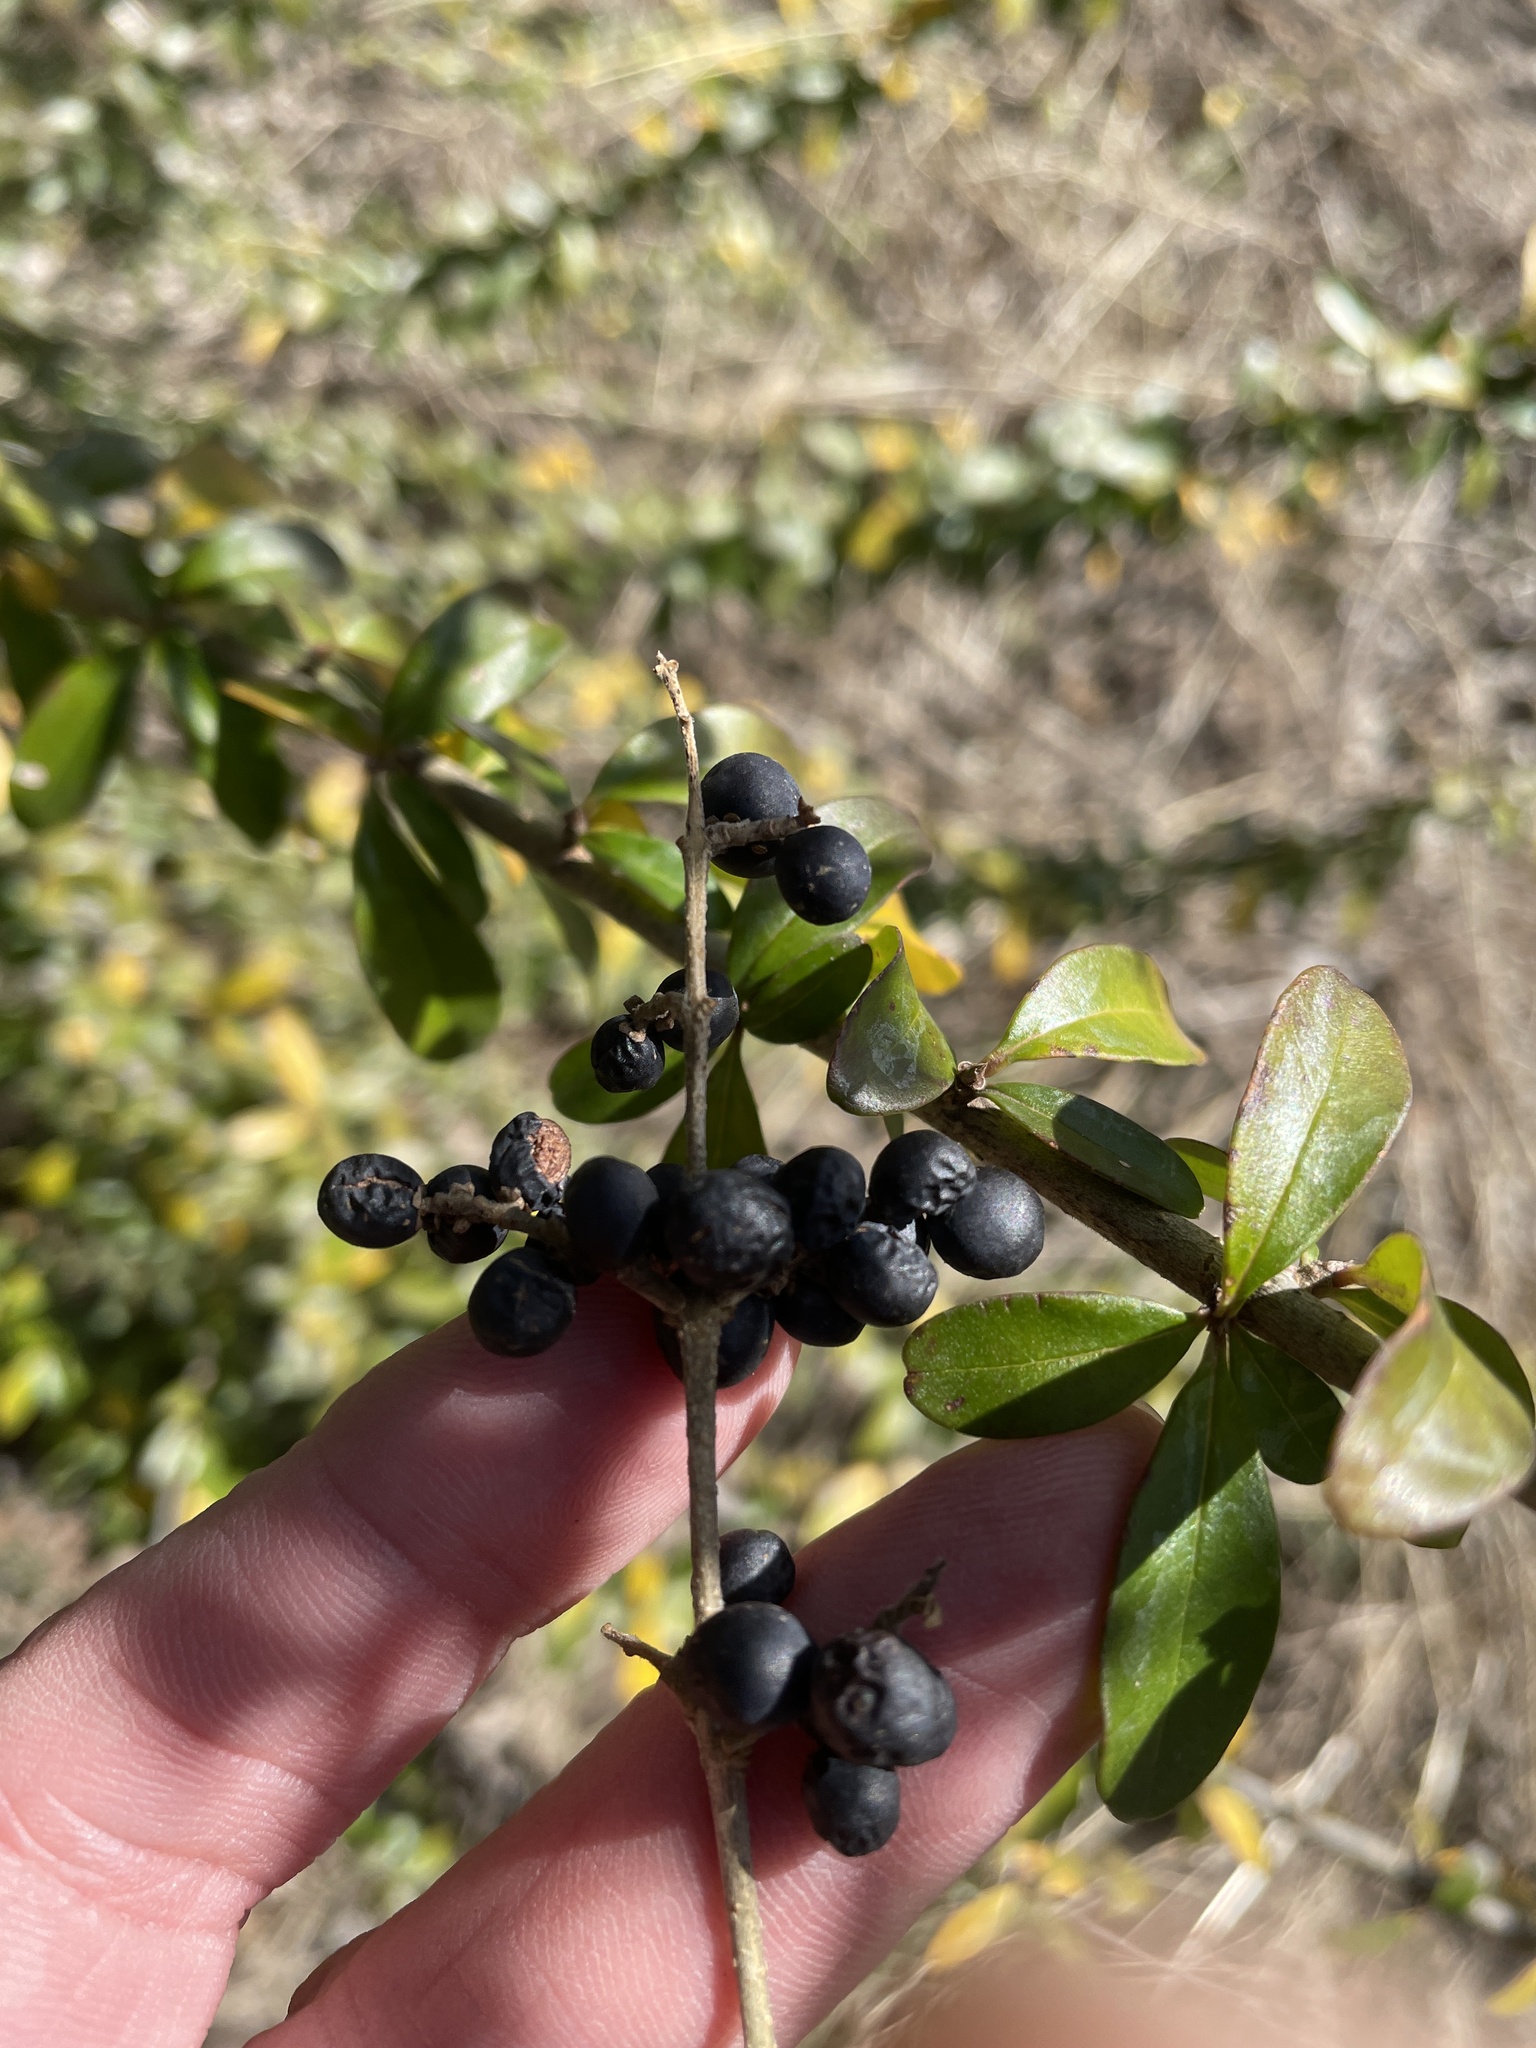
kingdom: Plantae
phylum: Tracheophyta
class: Magnoliopsida
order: Lamiales
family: Oleaceae
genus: Ligustrum
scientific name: Ligustrum quihoui
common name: Waxyleaf privet
